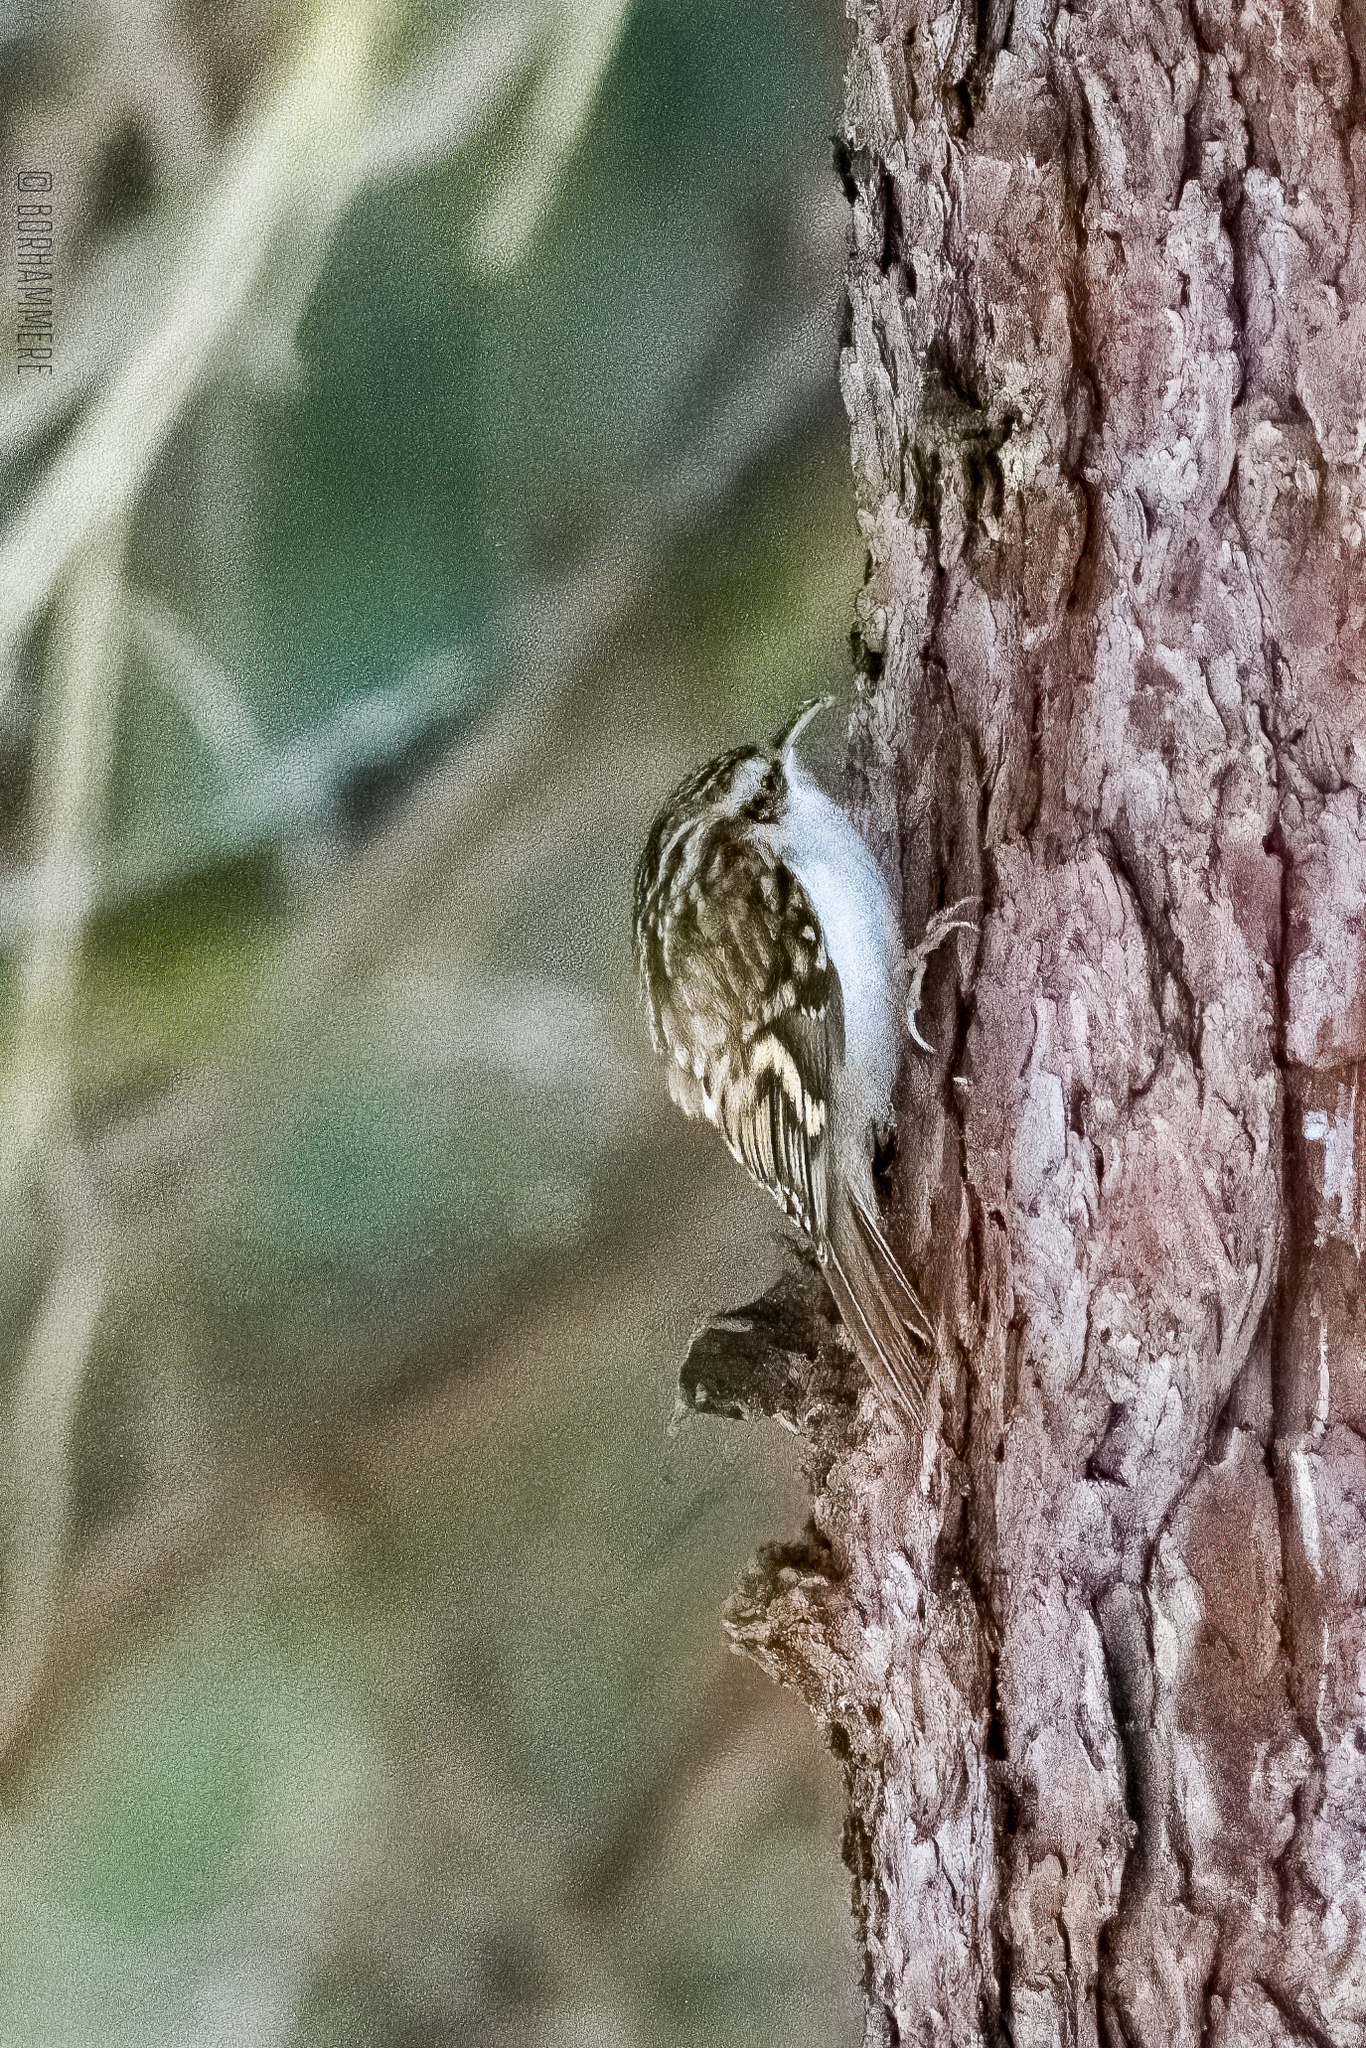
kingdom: Animalia
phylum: Chordata
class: Aves
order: Passeriformes
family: Certhiidae
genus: Certhia
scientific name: Certhia familiaris
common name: Eurasian treecreeper
